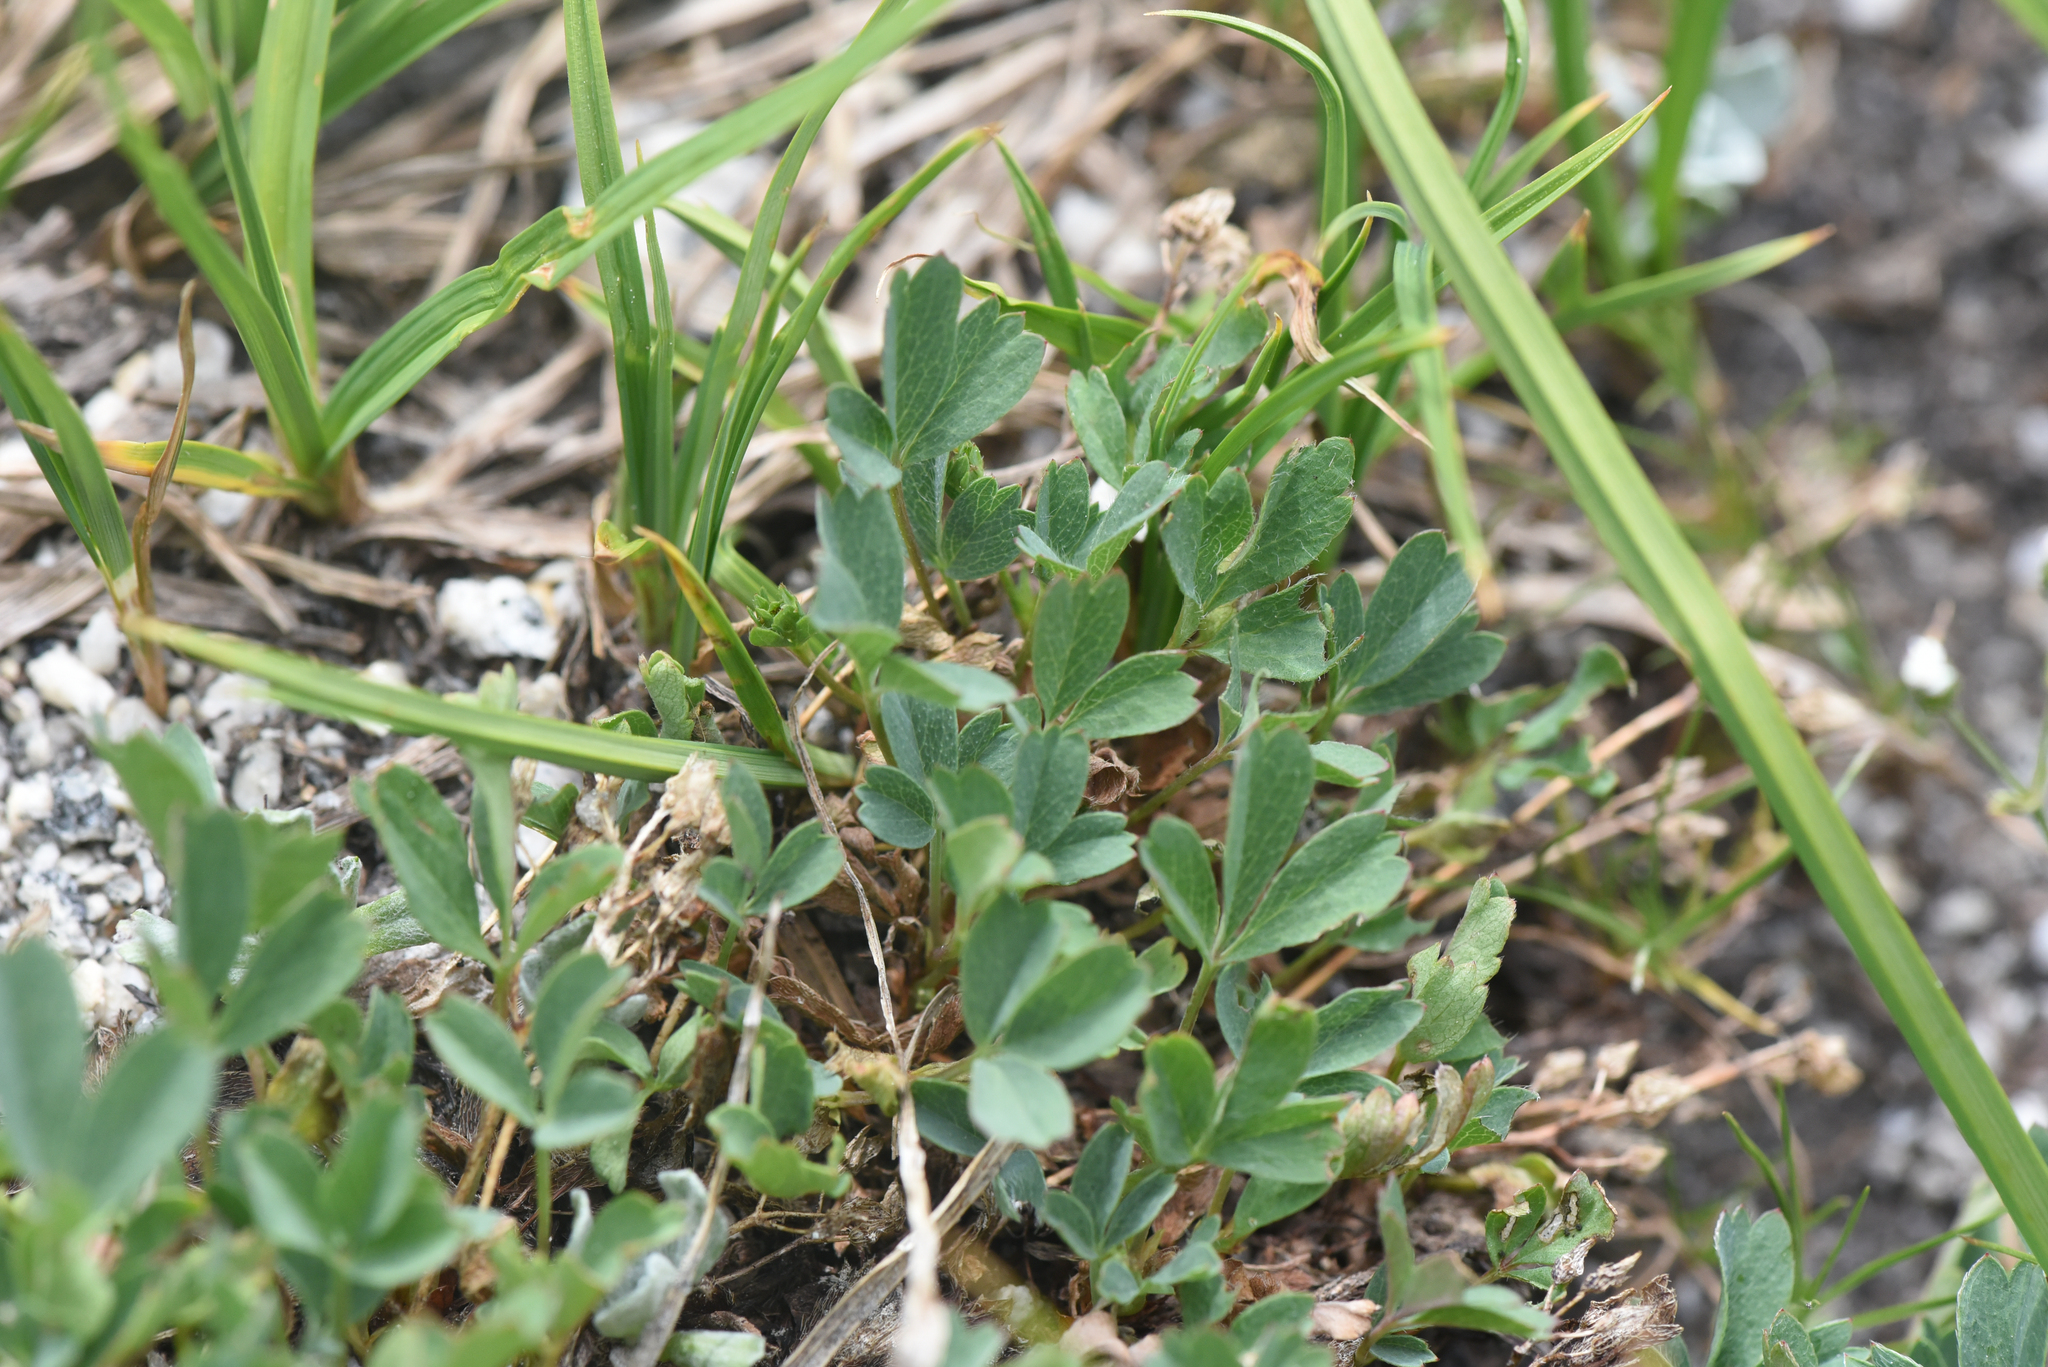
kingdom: Plantae
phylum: Tracheophyta
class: Magnoliopsida
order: Rosales
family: Rosaceae
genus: Sibbaldia
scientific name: Sibbaldia procumbens
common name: Creeping sibbaldia
